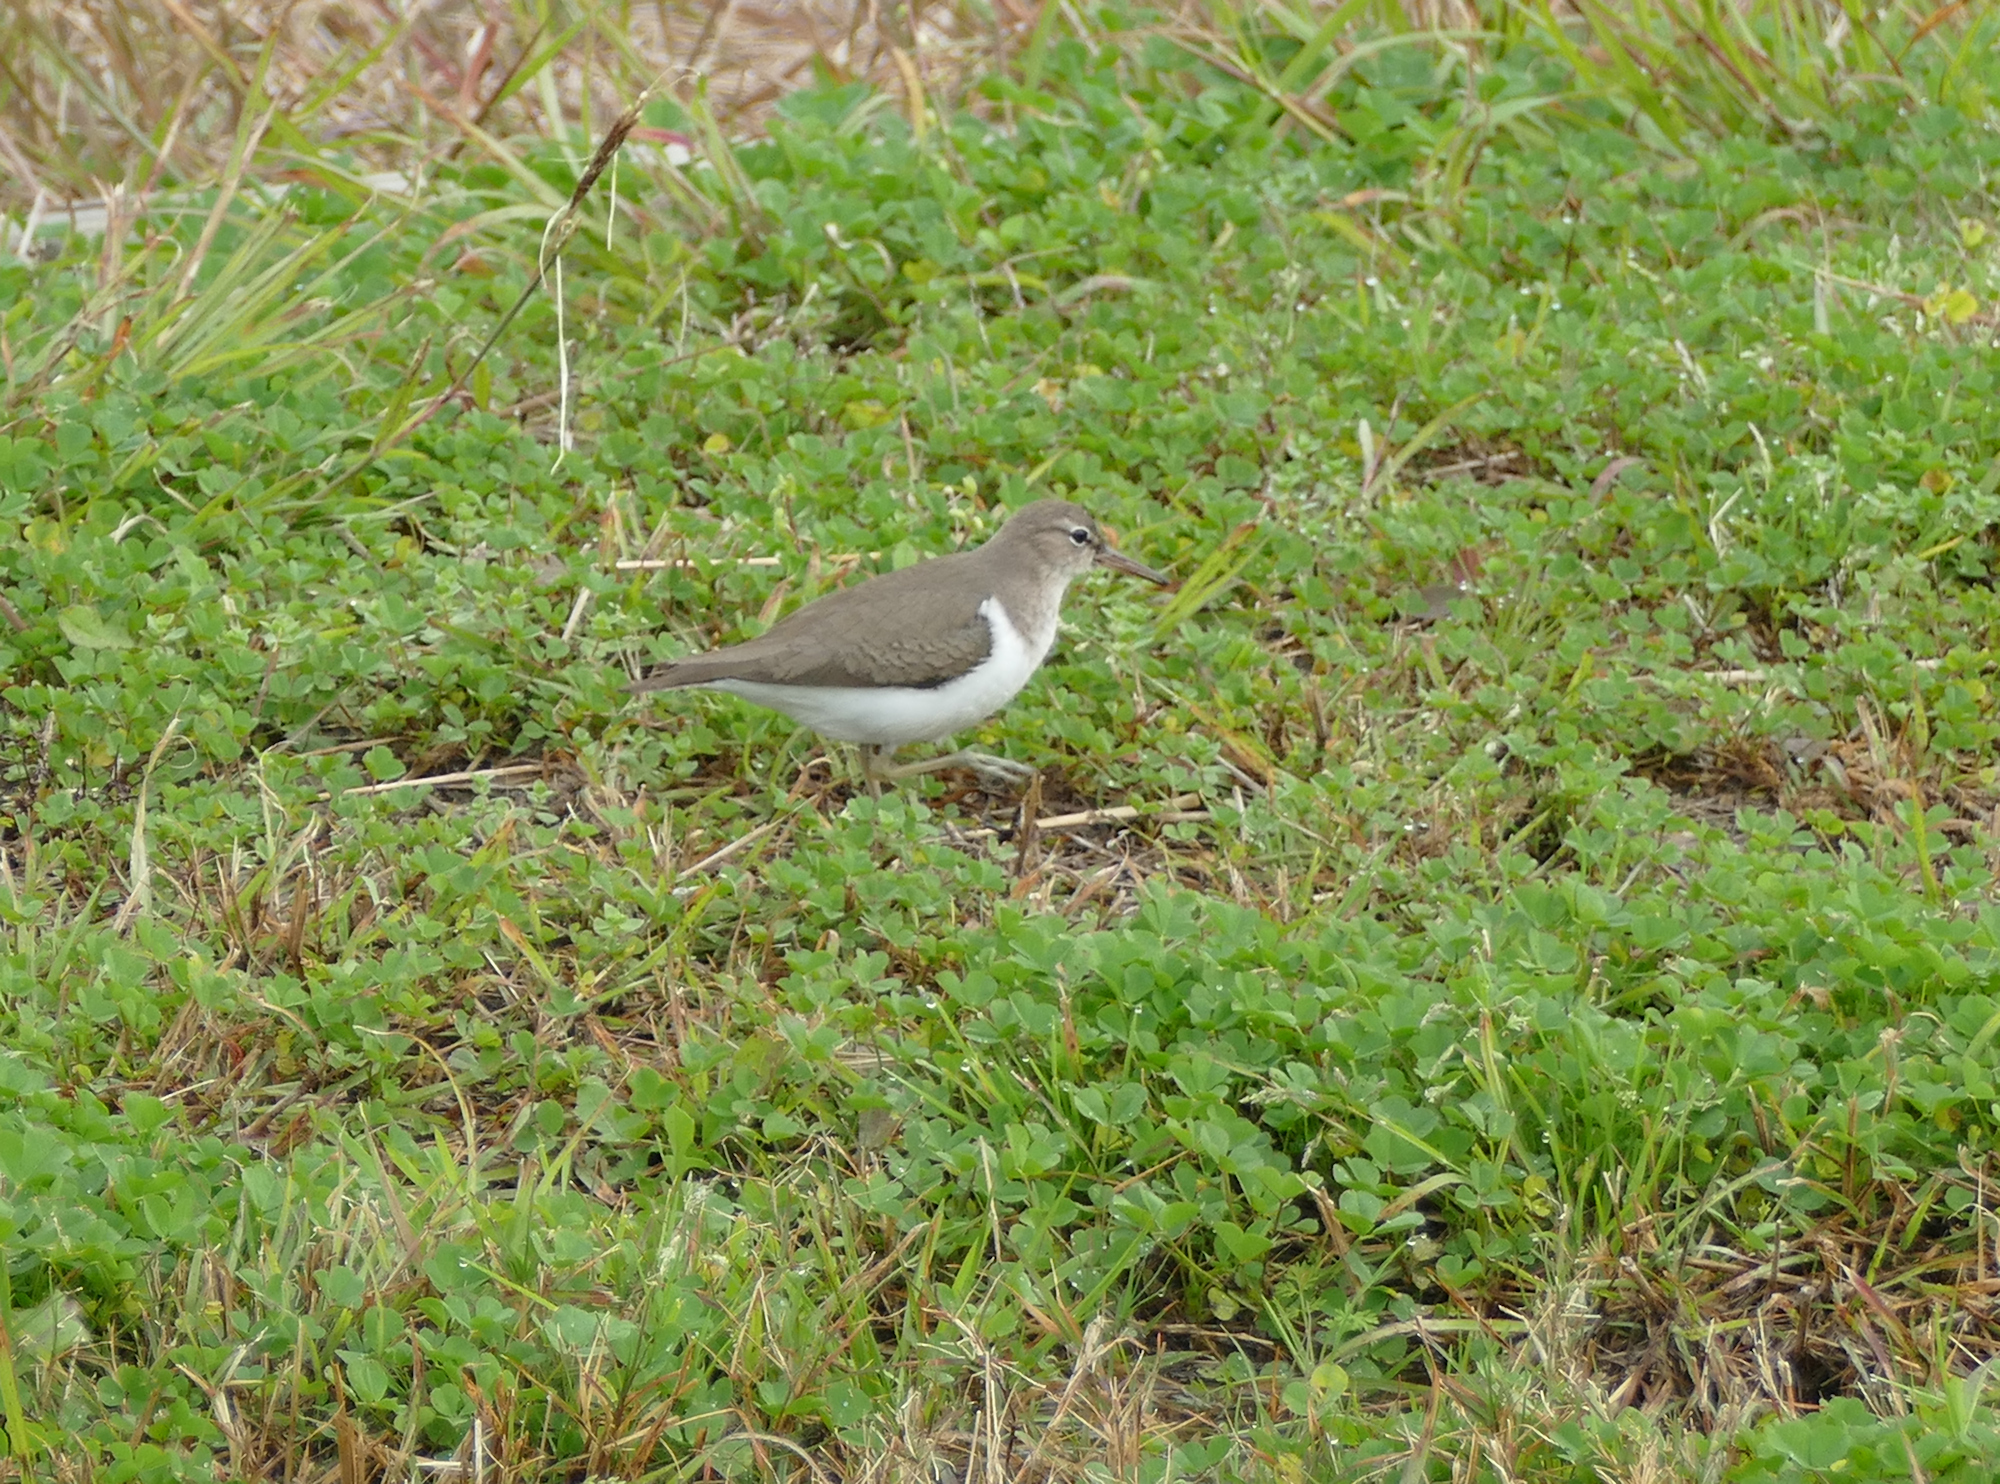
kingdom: Animalia
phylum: Chordata
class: Aves
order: Charadriiformes
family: Scolopacidae
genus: Actitis
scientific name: Actitis macularius
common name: Spotted sandpiper
